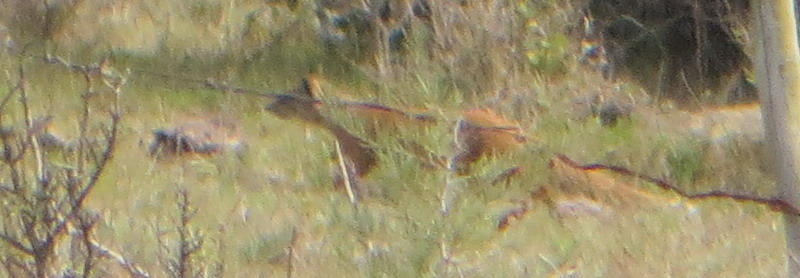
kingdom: Animalia
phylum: Chordata
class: Mammalia
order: Carnivora
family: Herpestidae
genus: Cynictis
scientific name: Cynictis penicillata
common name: Yellow mongoose
